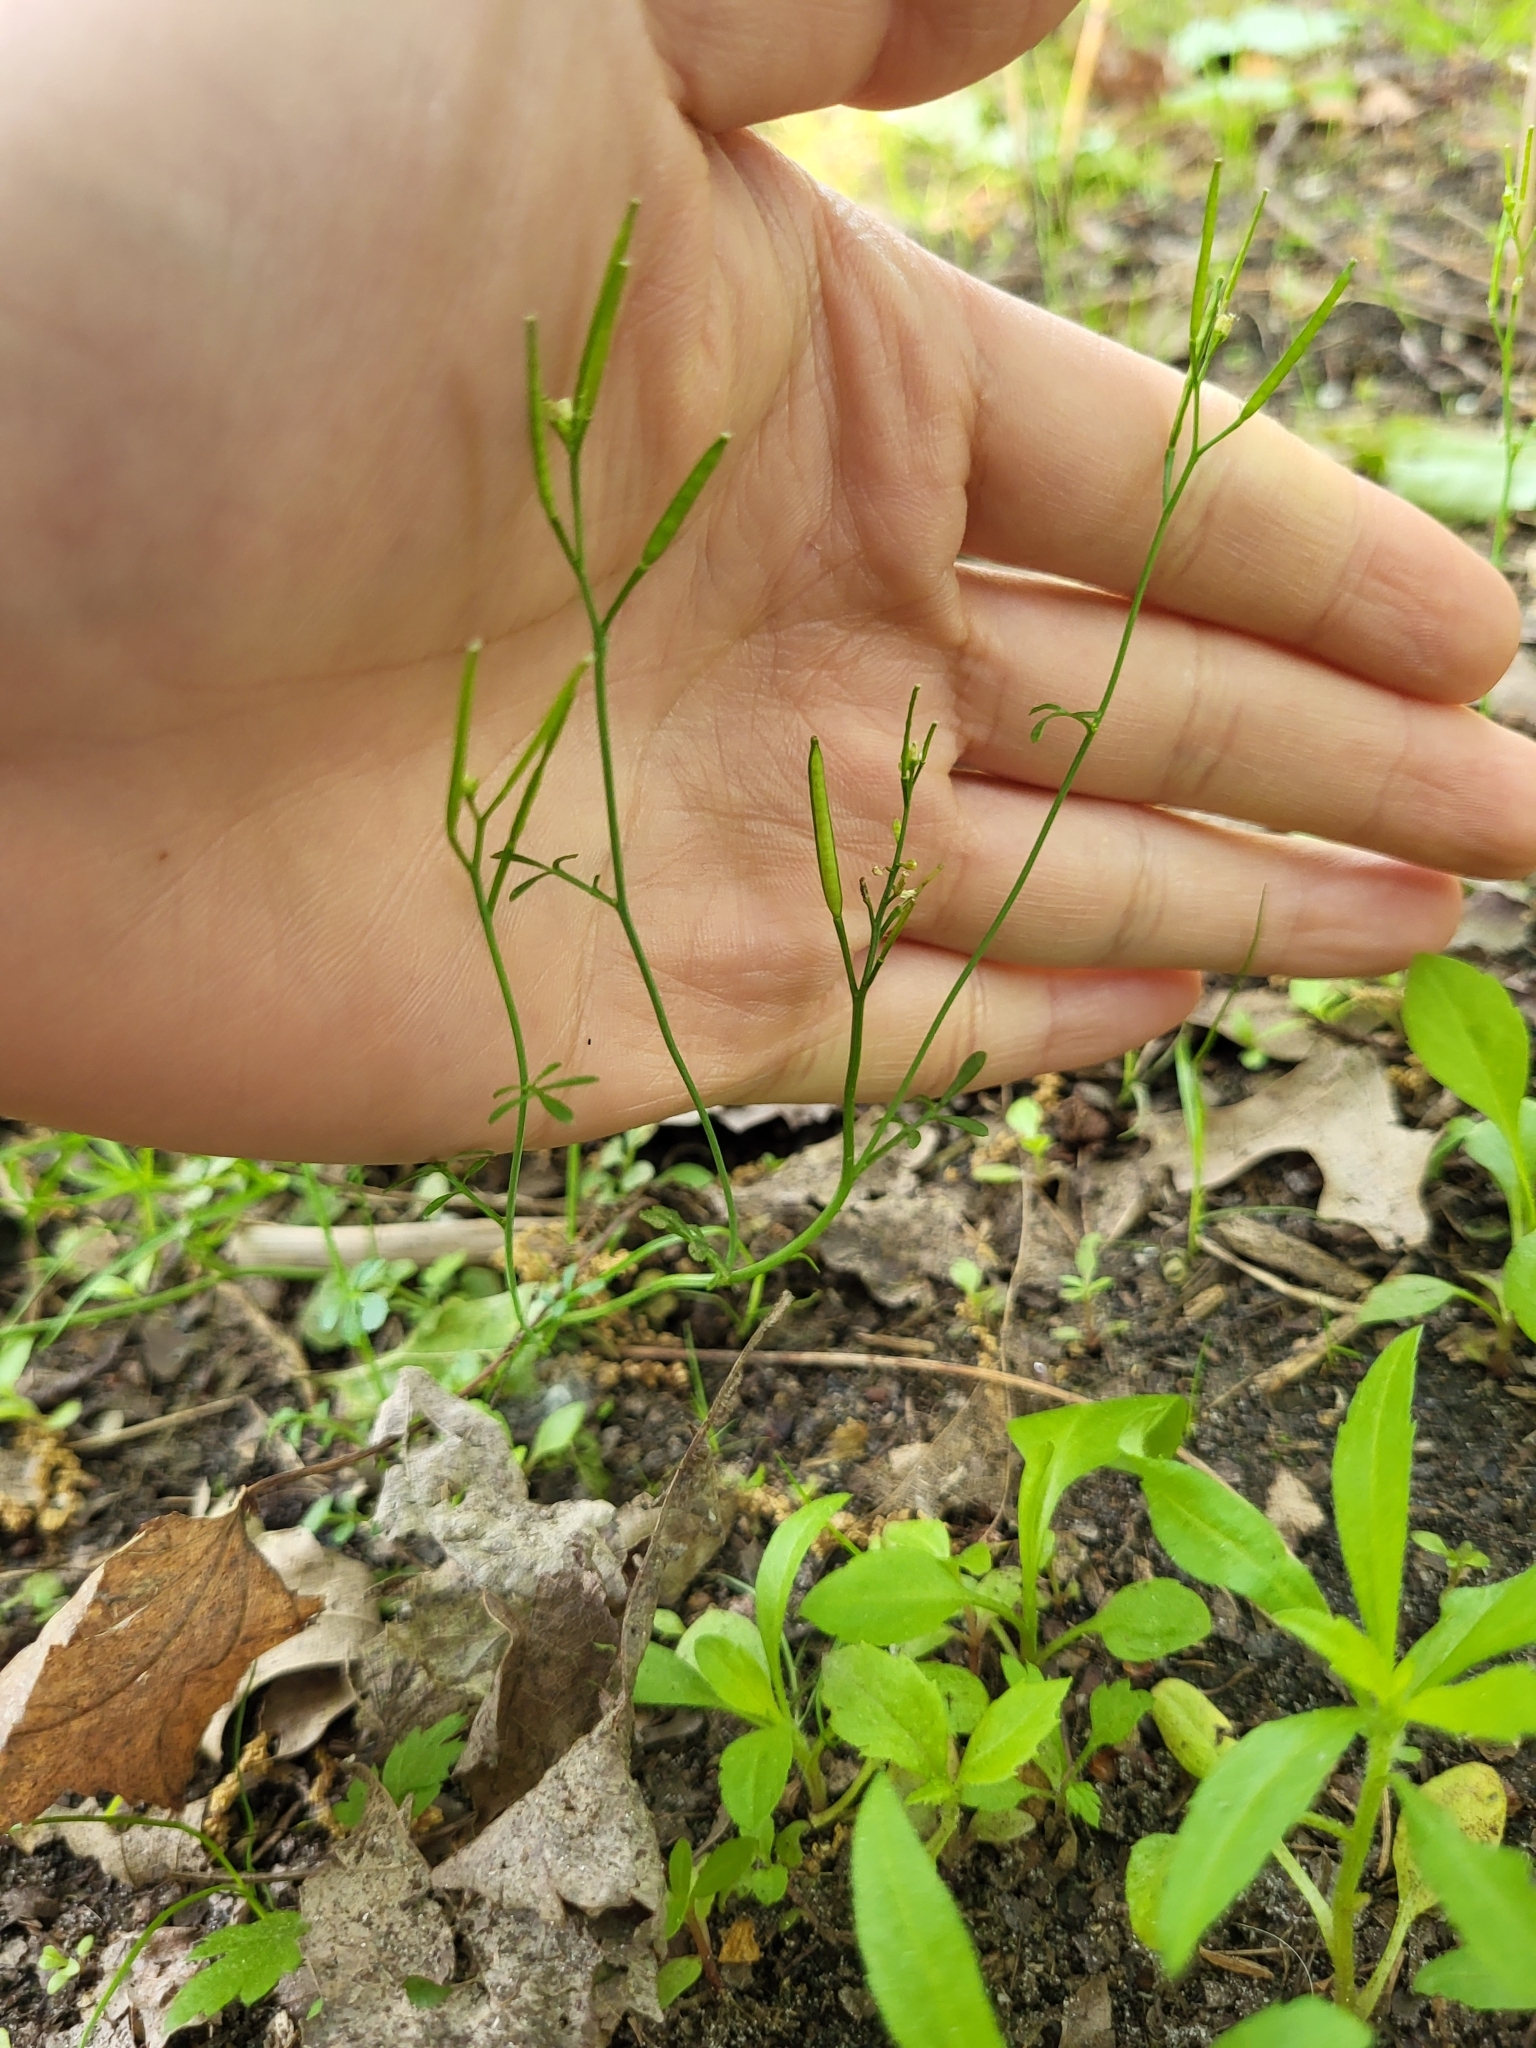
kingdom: Plantae
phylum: Tracheophyta
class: Magnoliopsida
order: Brassicales
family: Brassicaceae
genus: Cardamine
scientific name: Cardamine parviflora
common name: Sand bittercress
